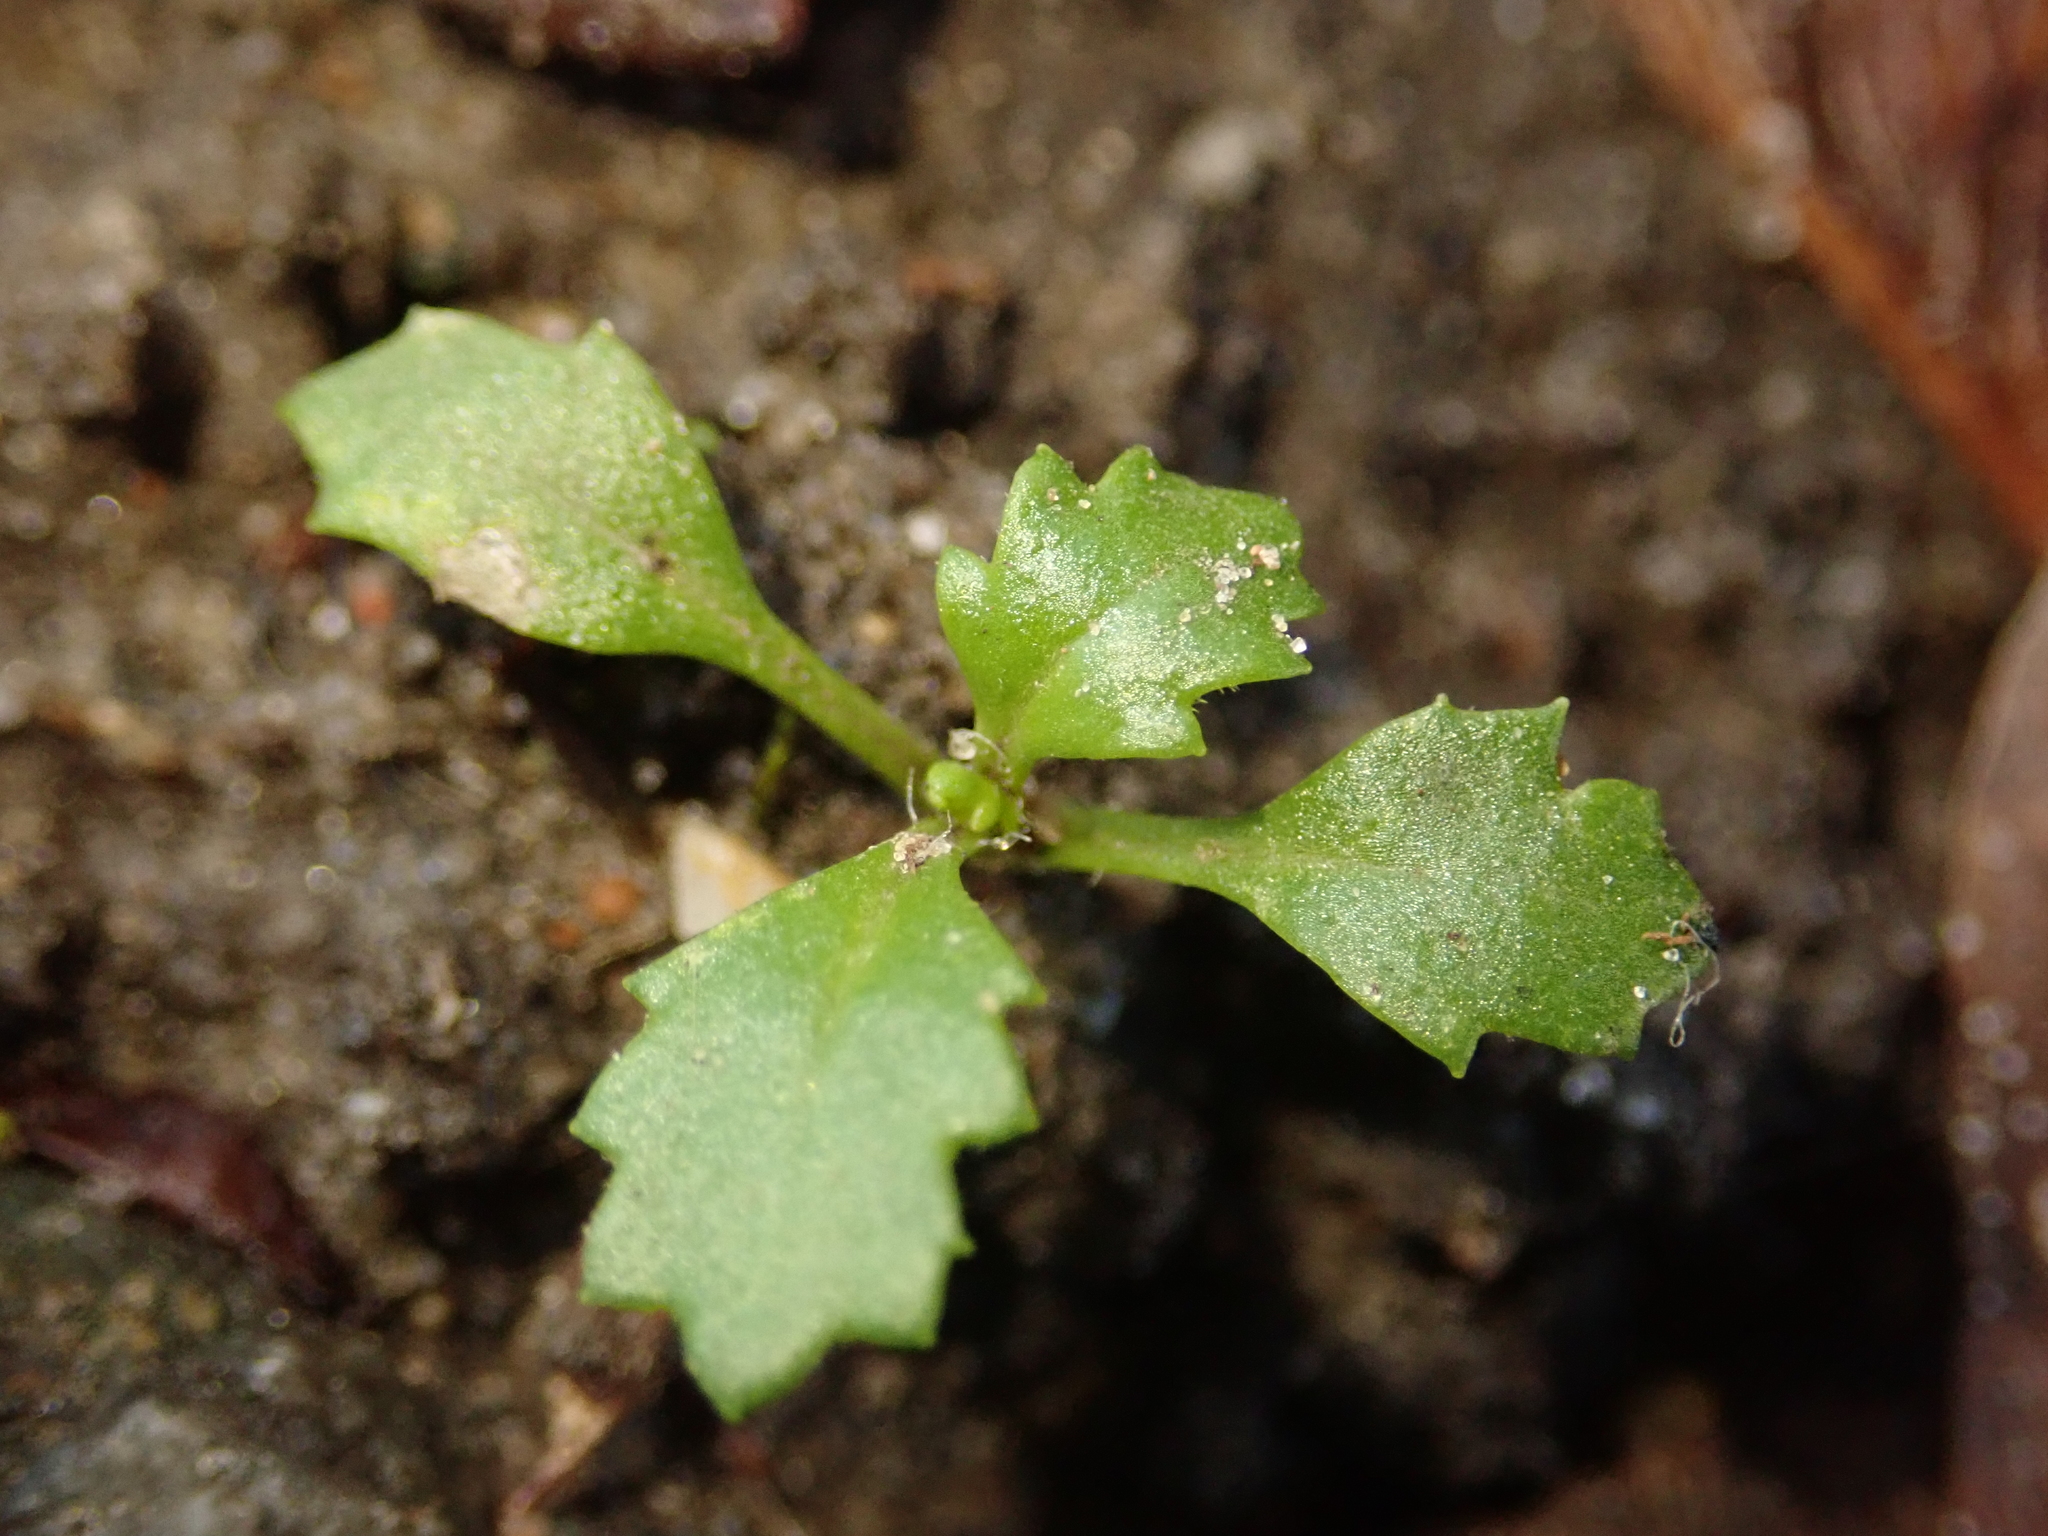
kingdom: Plantae
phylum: Tracheophyta
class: Magnoliopsida
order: Asterales
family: Asteraceae
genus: Senecio
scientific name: Senecio vulgaris
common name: Old-man-in-the-spring
